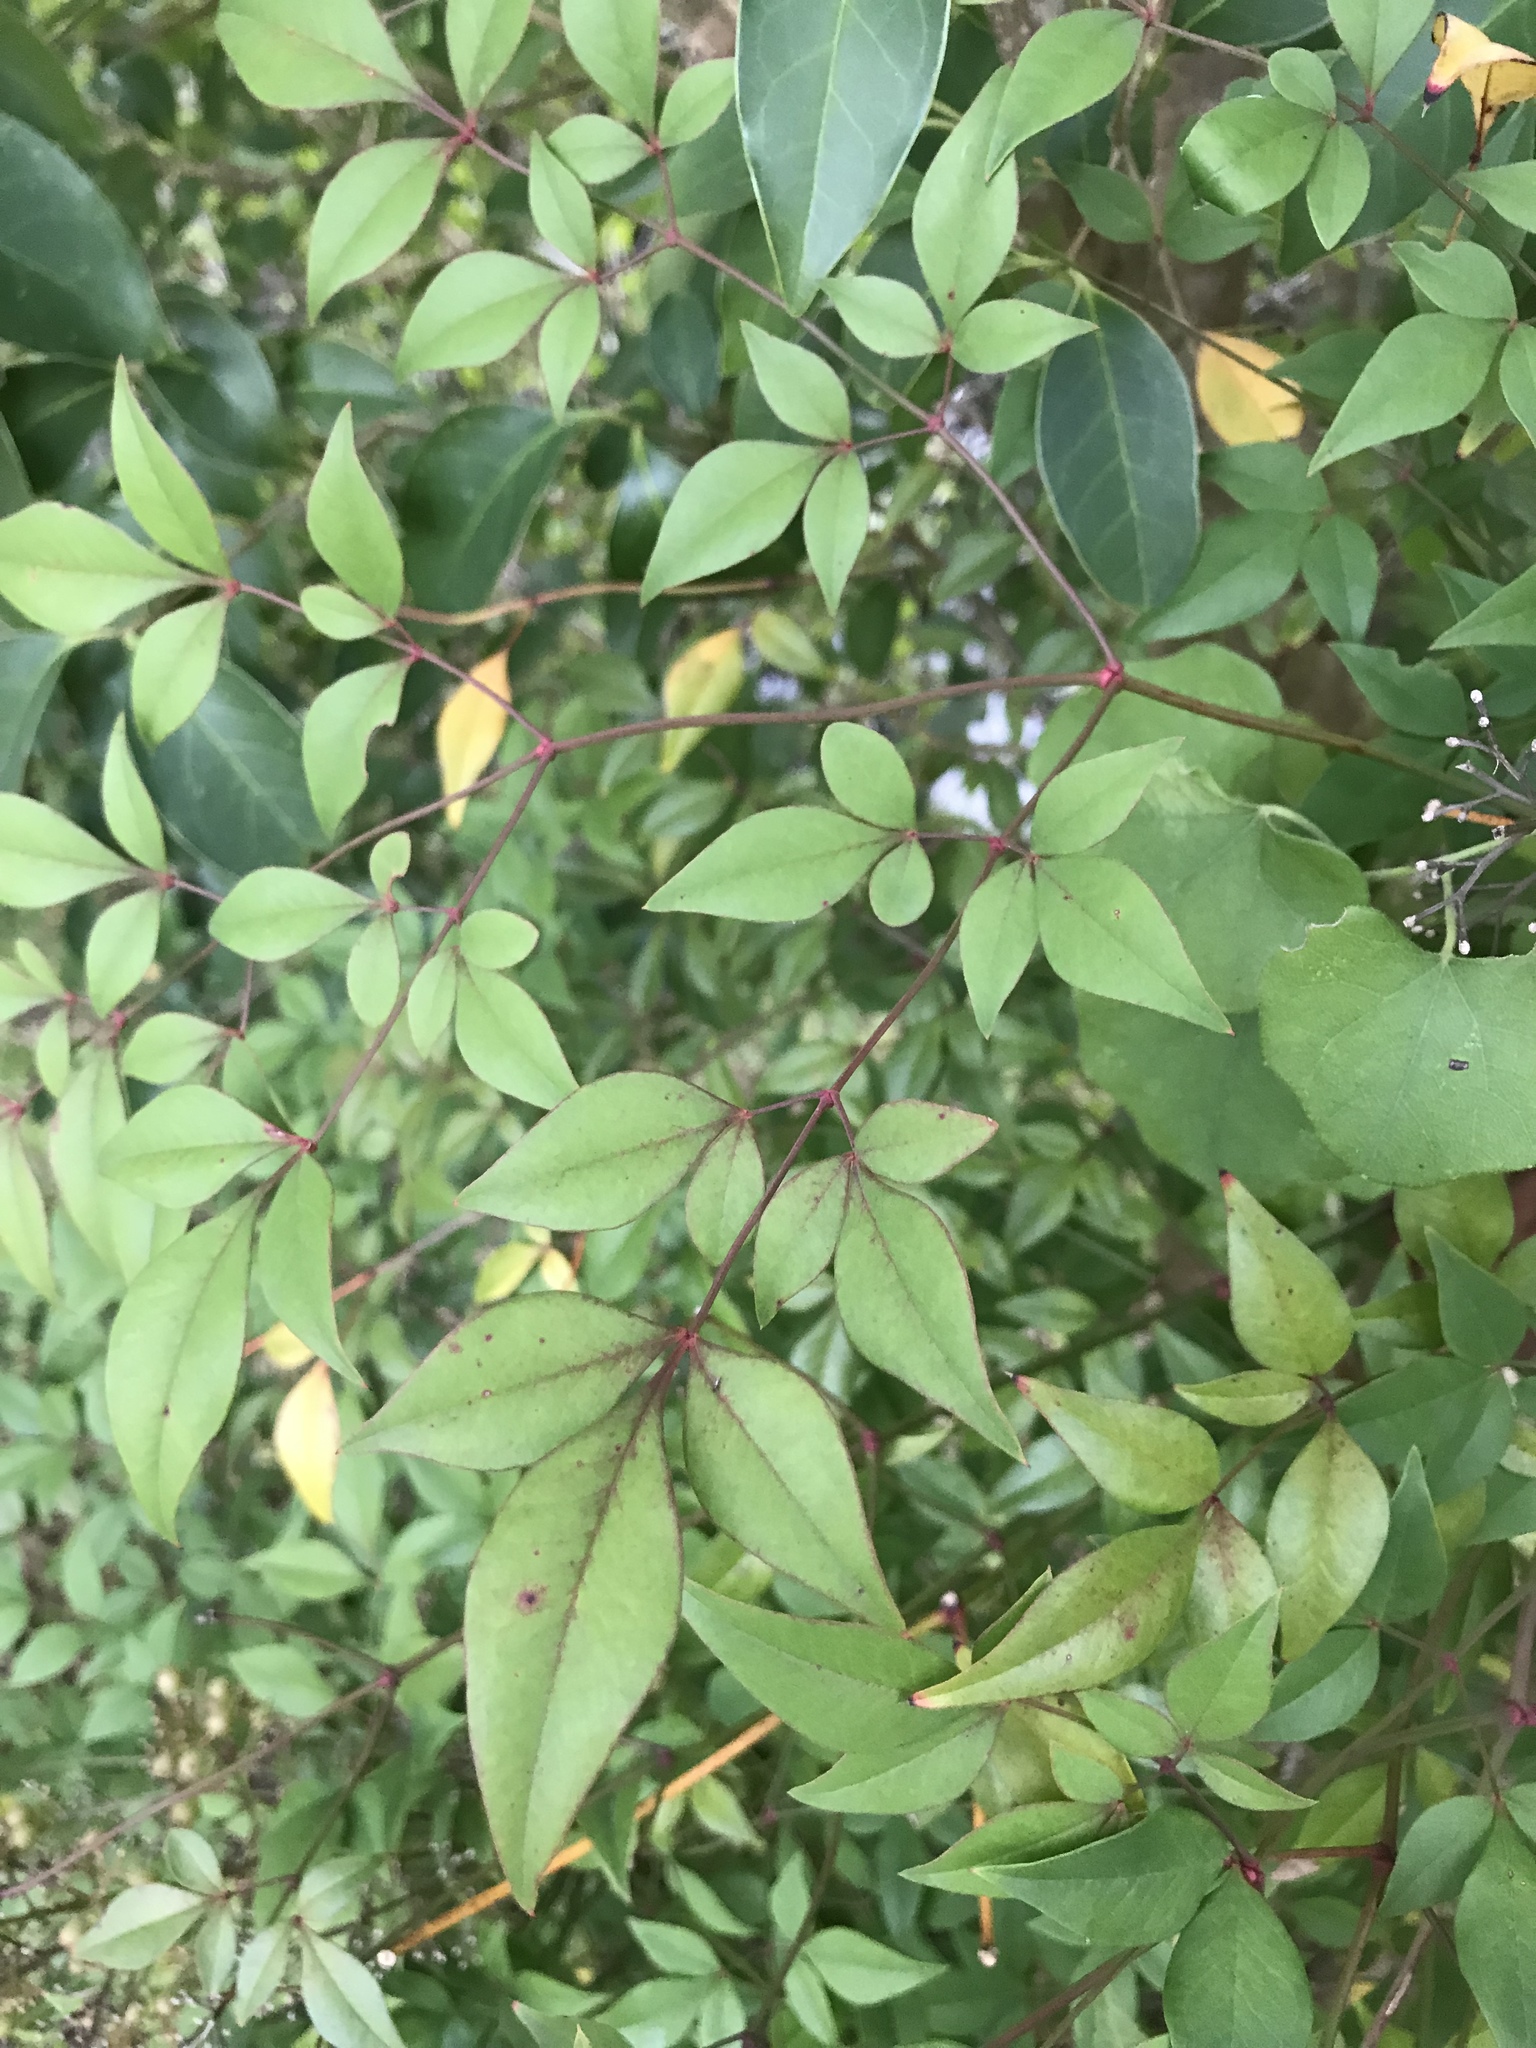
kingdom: Plantae
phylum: Tracheophyta
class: Magnoliopsida
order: Ranunculales
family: Berberidaceae
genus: Nandina
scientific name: Nandina domestica
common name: Sacred bamboo
